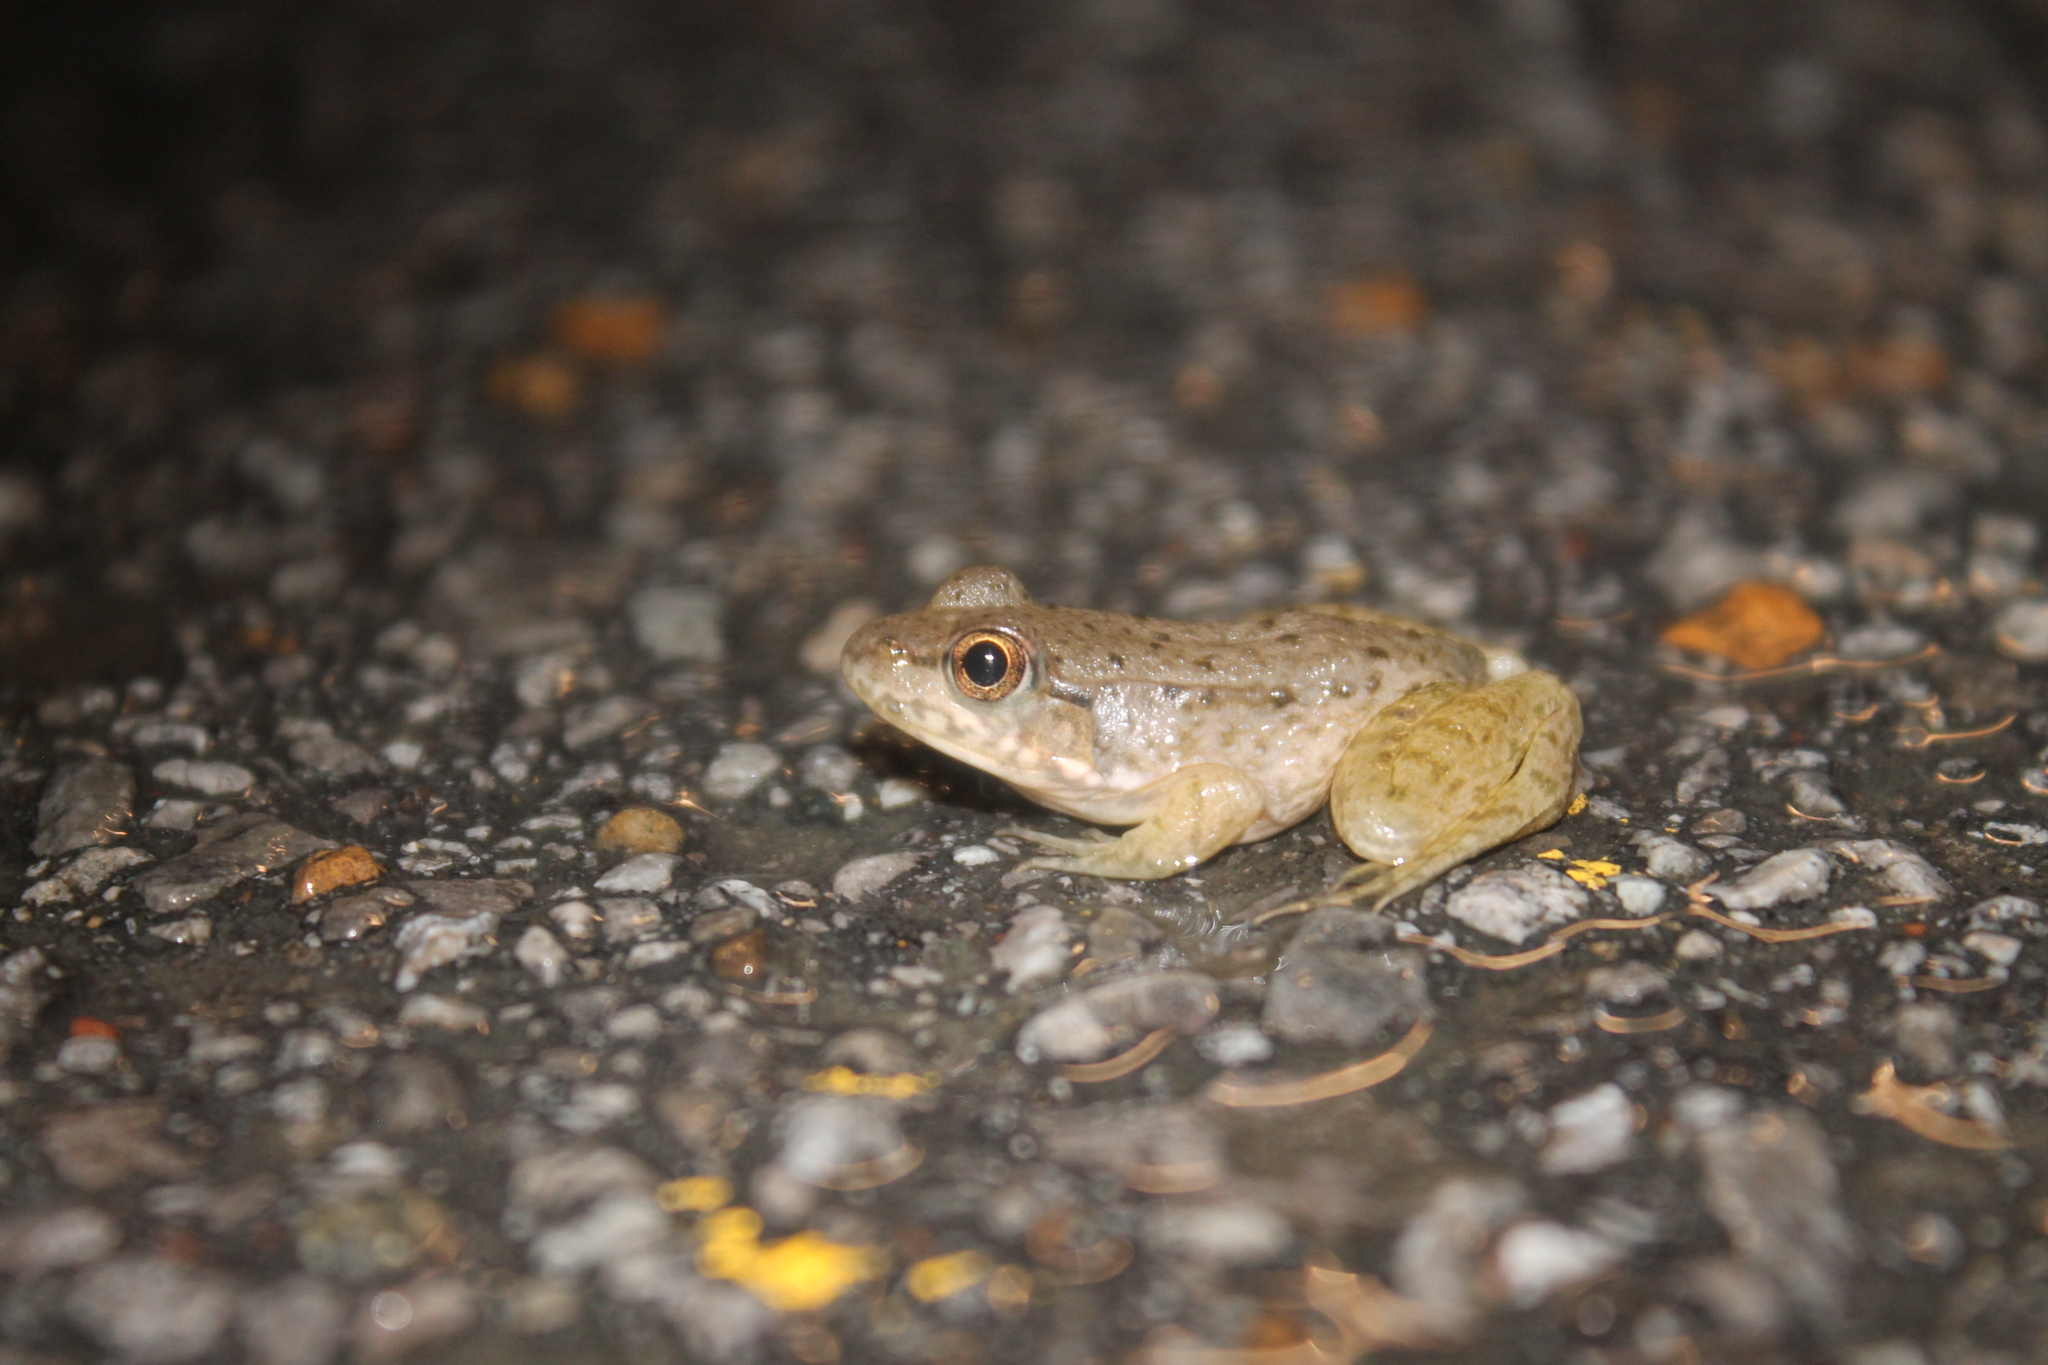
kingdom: Animalia
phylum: Chordata
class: Amphibia
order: Anura
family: Ranidae
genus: Lithobates
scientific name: Lithobates clamitans
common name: Green frog
